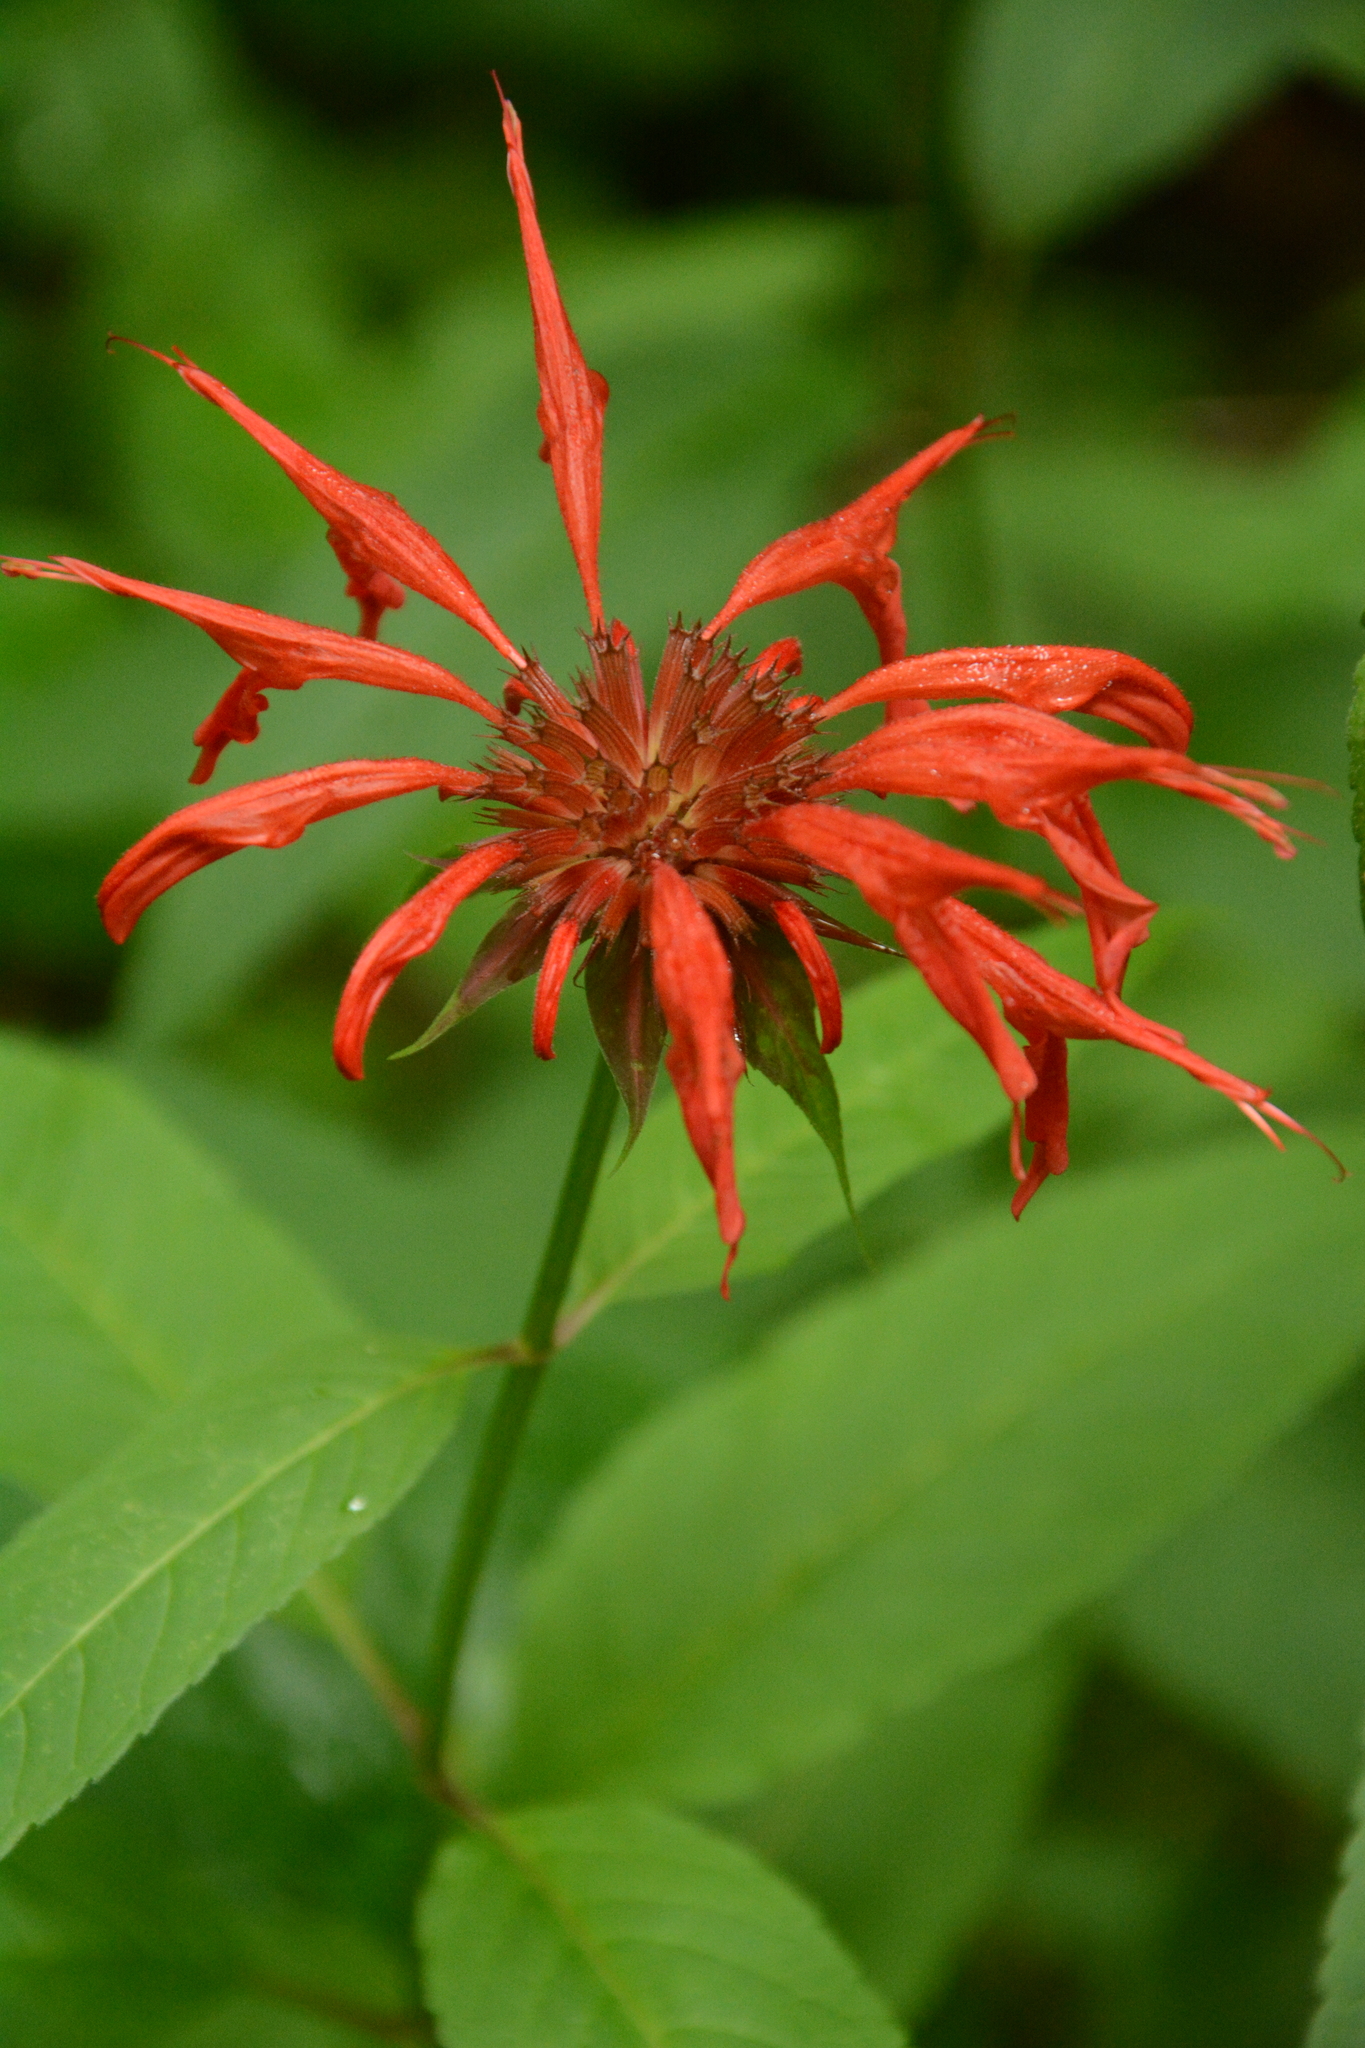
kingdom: Plantae
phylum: Tracheophyta
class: Magnoliopsida
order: Lamiales
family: Lamiaceae
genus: Monarda
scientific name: Monarda didyma
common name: Beebalm
